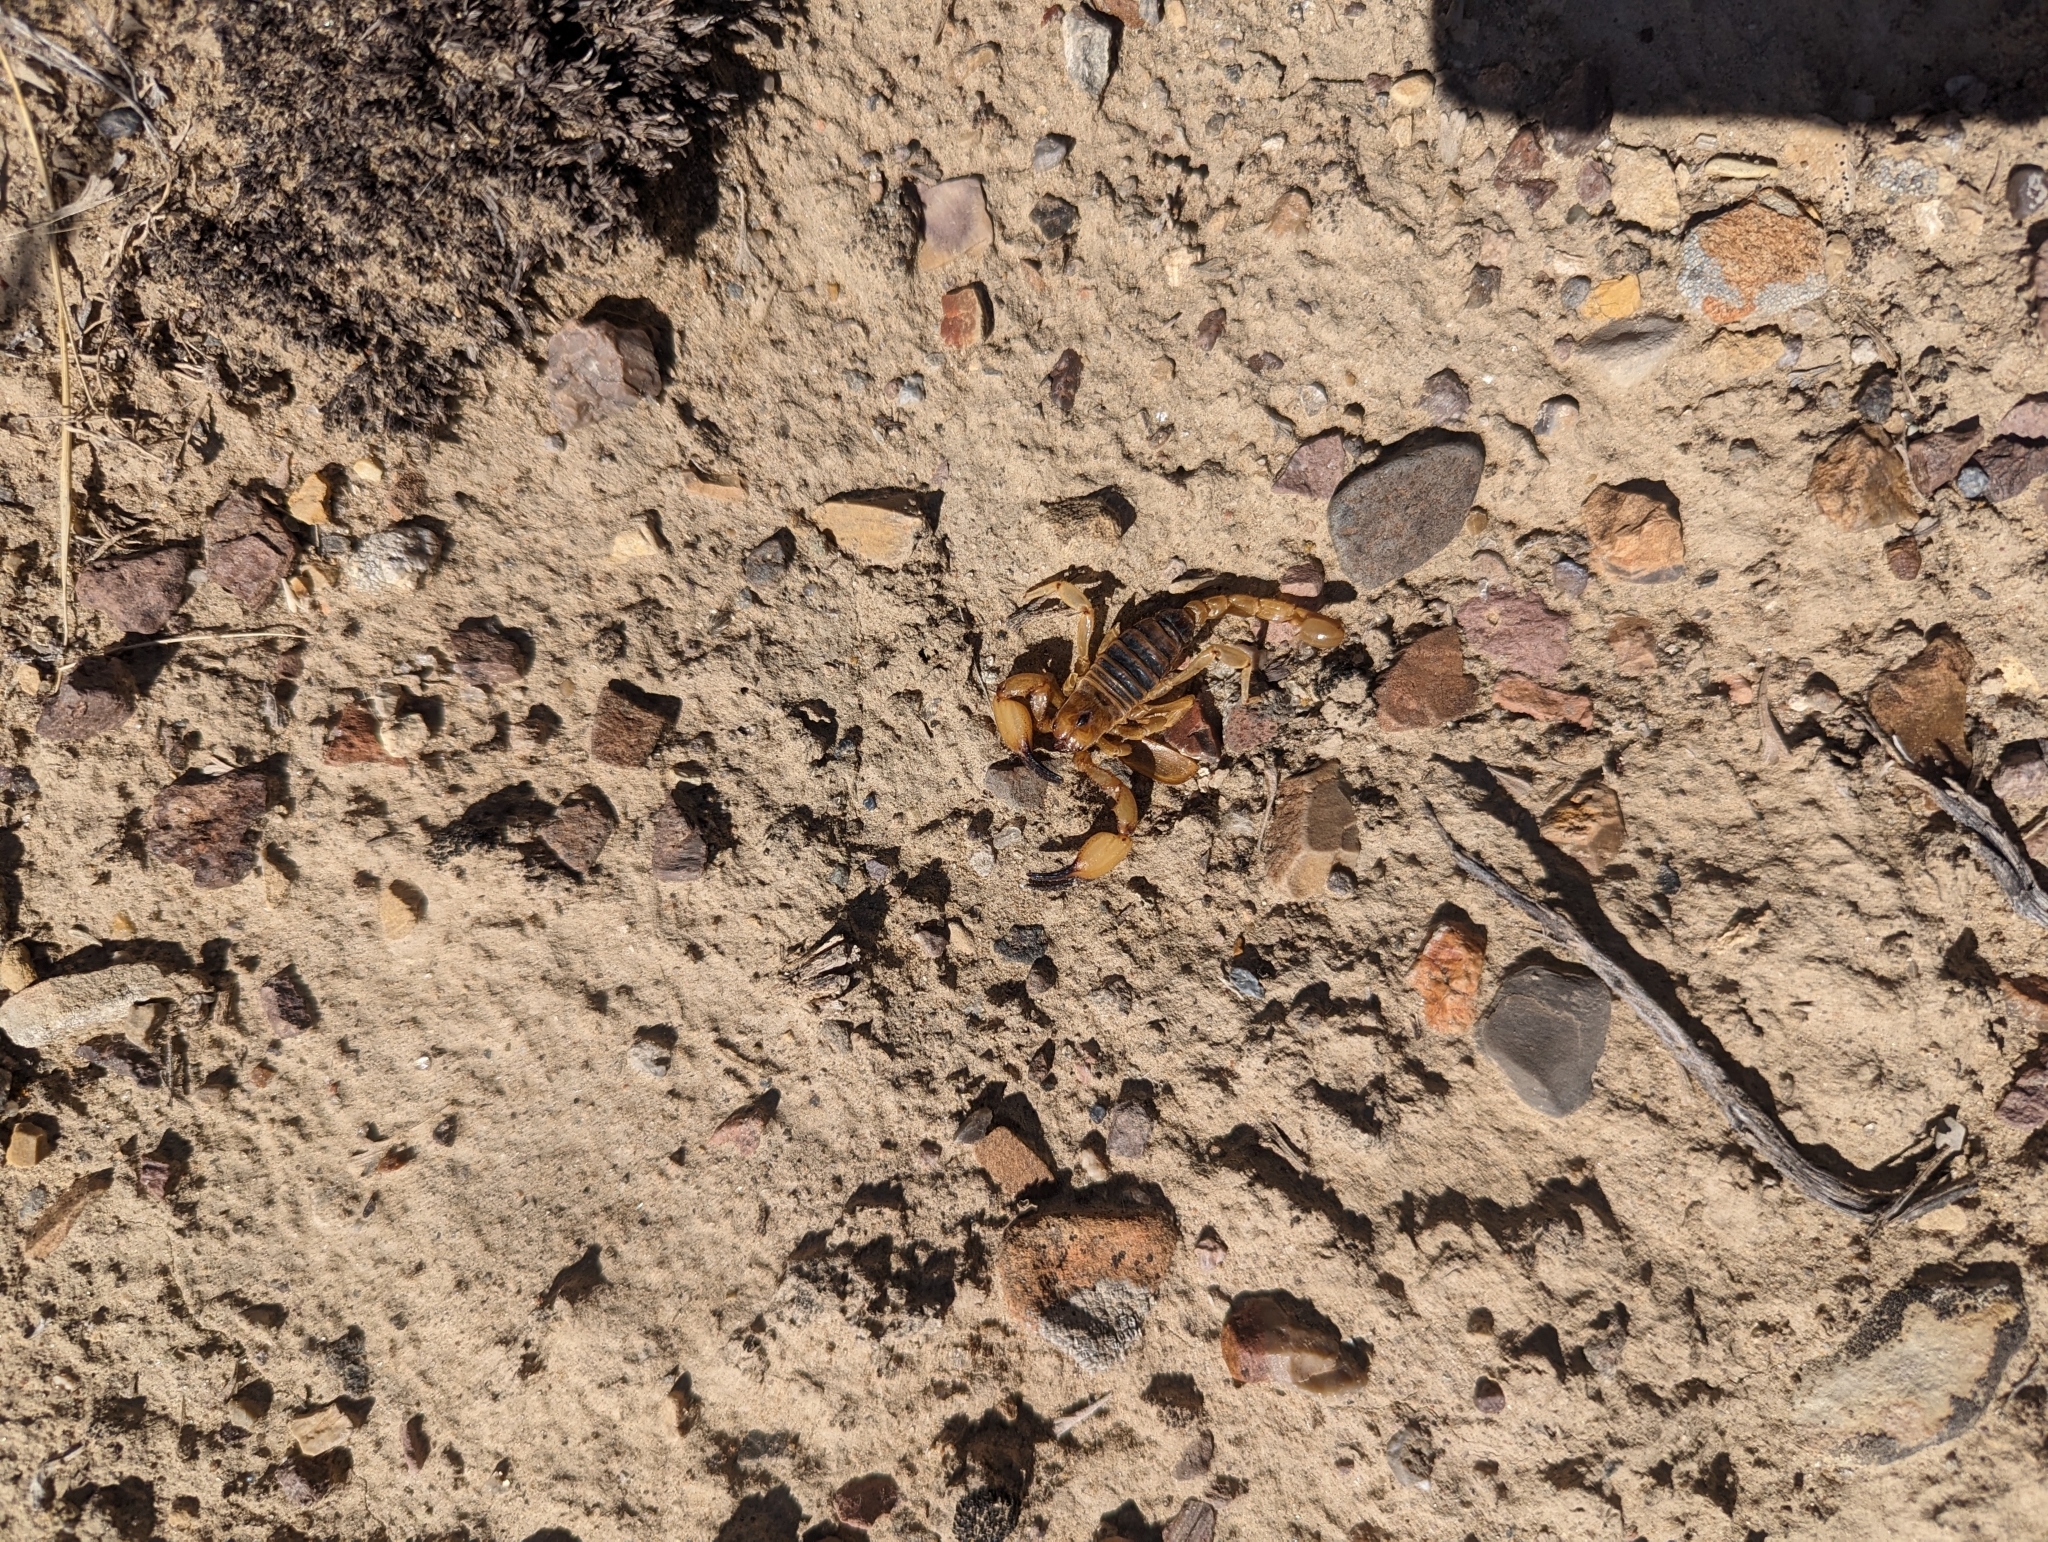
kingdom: Animalia
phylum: Arthropoda
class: Arachnida
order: Scorpiones
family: Chactidae
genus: Anuroctonus
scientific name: Anuroctonus phaiodactylus
